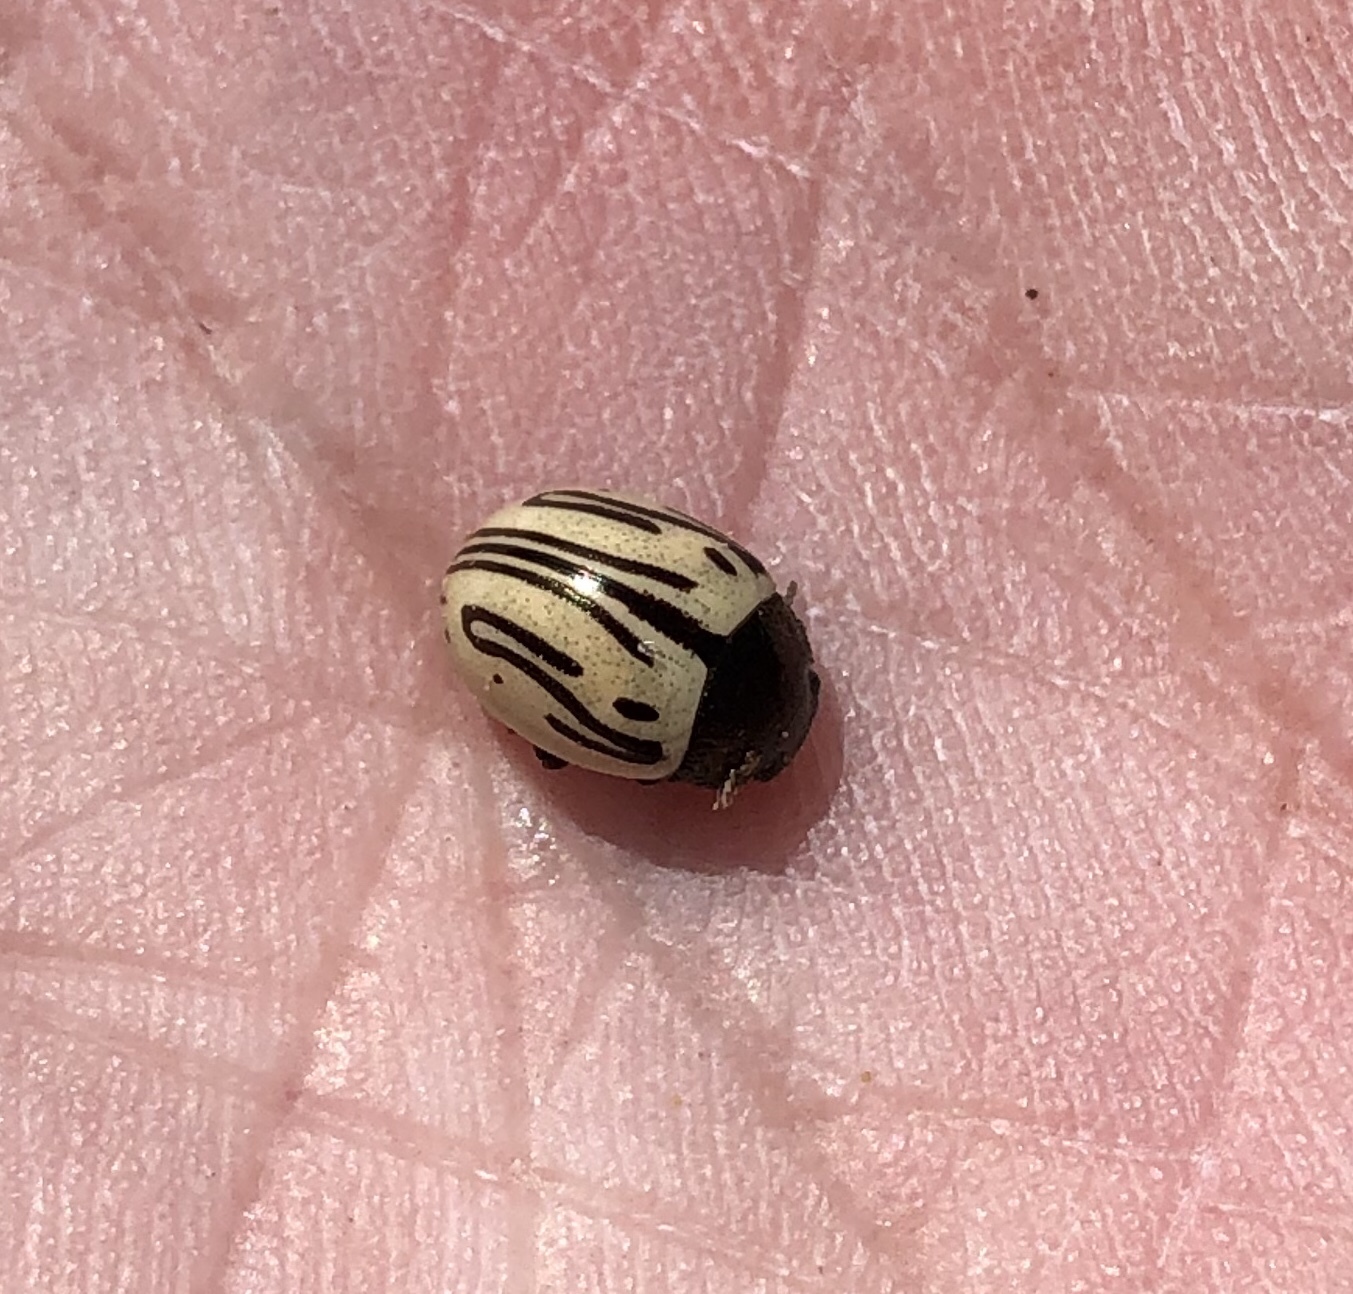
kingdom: Animalia
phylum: Arthropoda
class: Insecta
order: Coleoptera
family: Chrysomelidae
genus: Calligrapha
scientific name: Calligrapha
